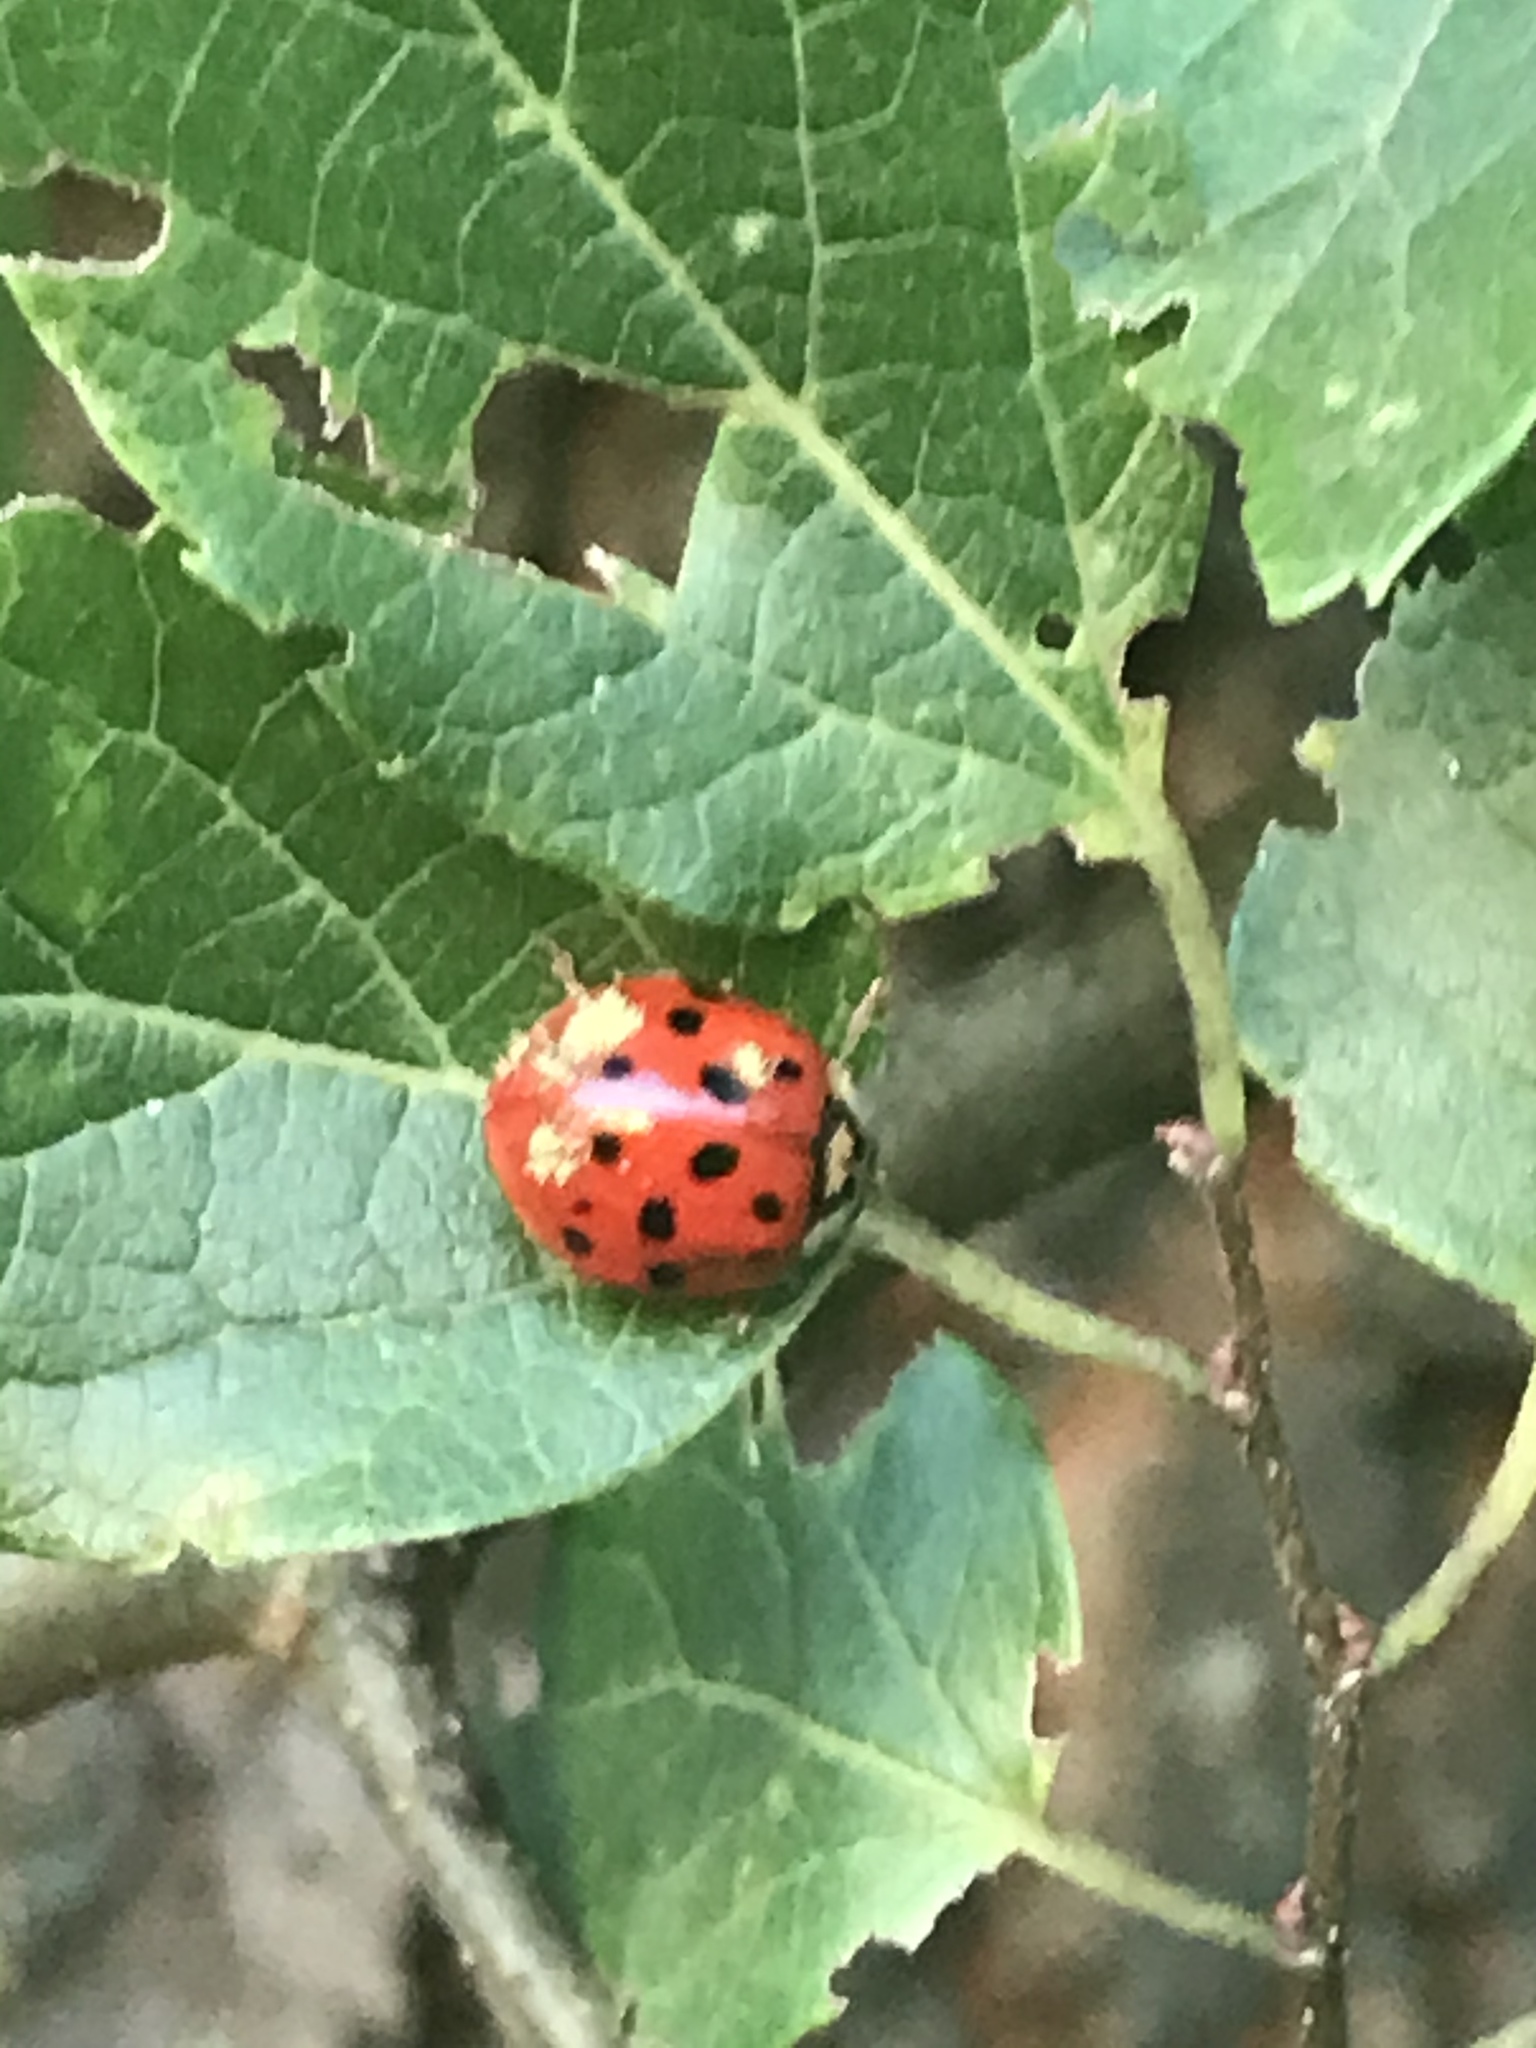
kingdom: Animalia
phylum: Arthropoda
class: Insecta
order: Coleoptera
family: Coccinellidae
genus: Harmonia
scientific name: Harmonia axyridis
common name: Harlequin ladybird
